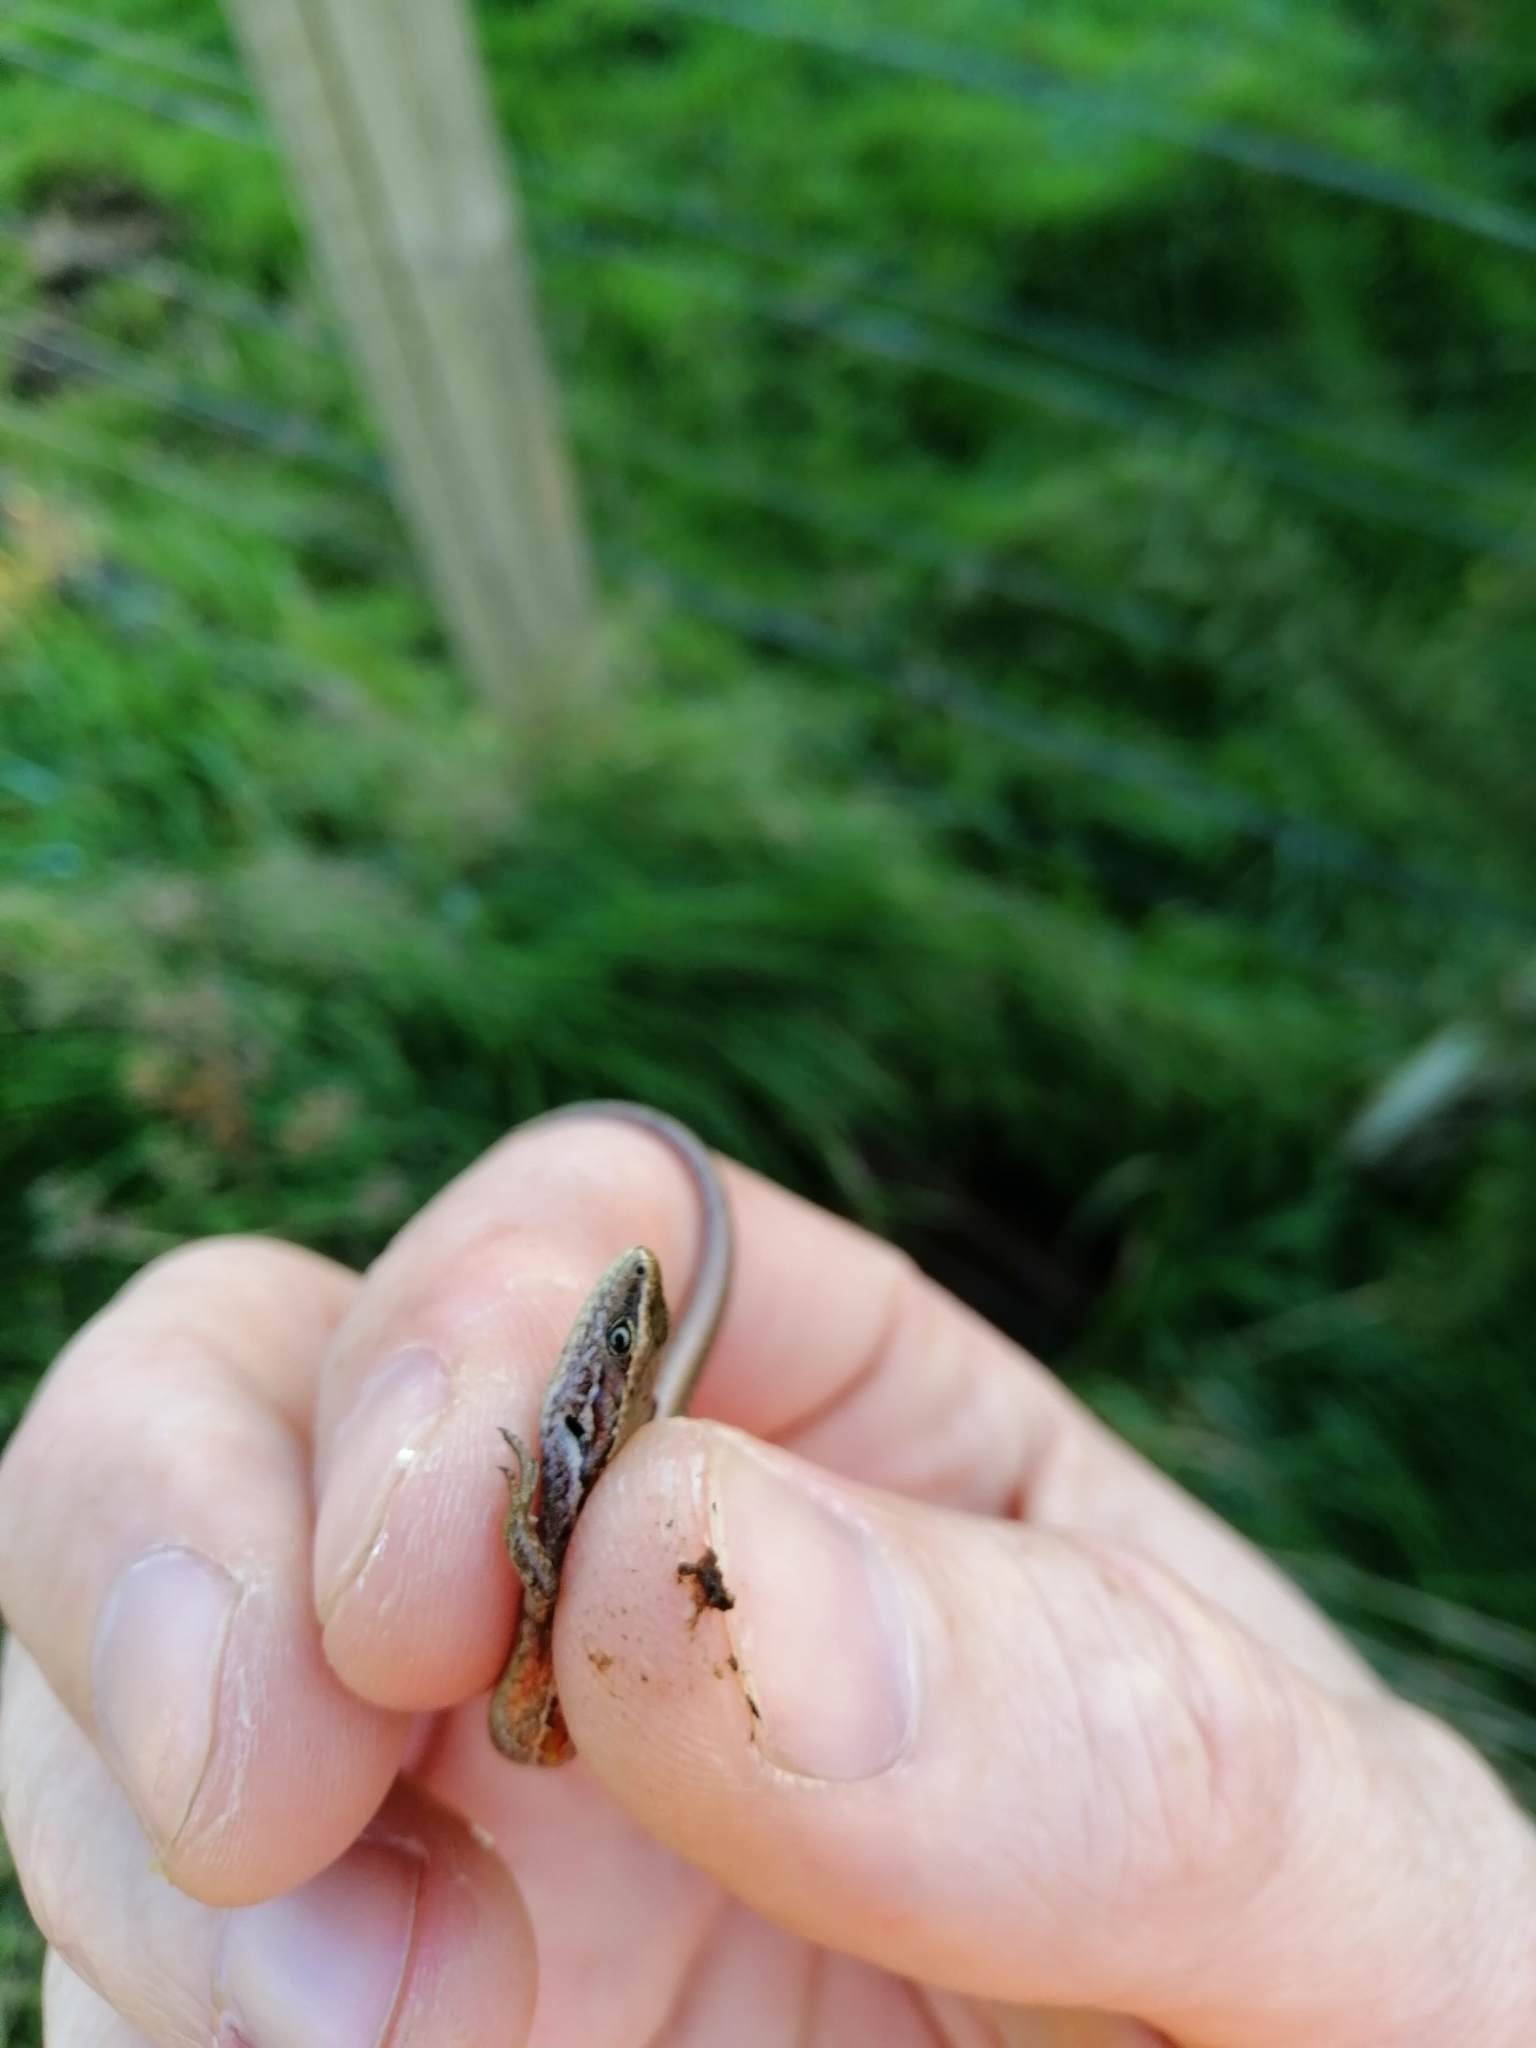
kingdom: Animalia
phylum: Chordata
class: Squamata
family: Scincidae
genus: Oligosoma
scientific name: Oligosoma polychroma
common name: Common new zealand skink
